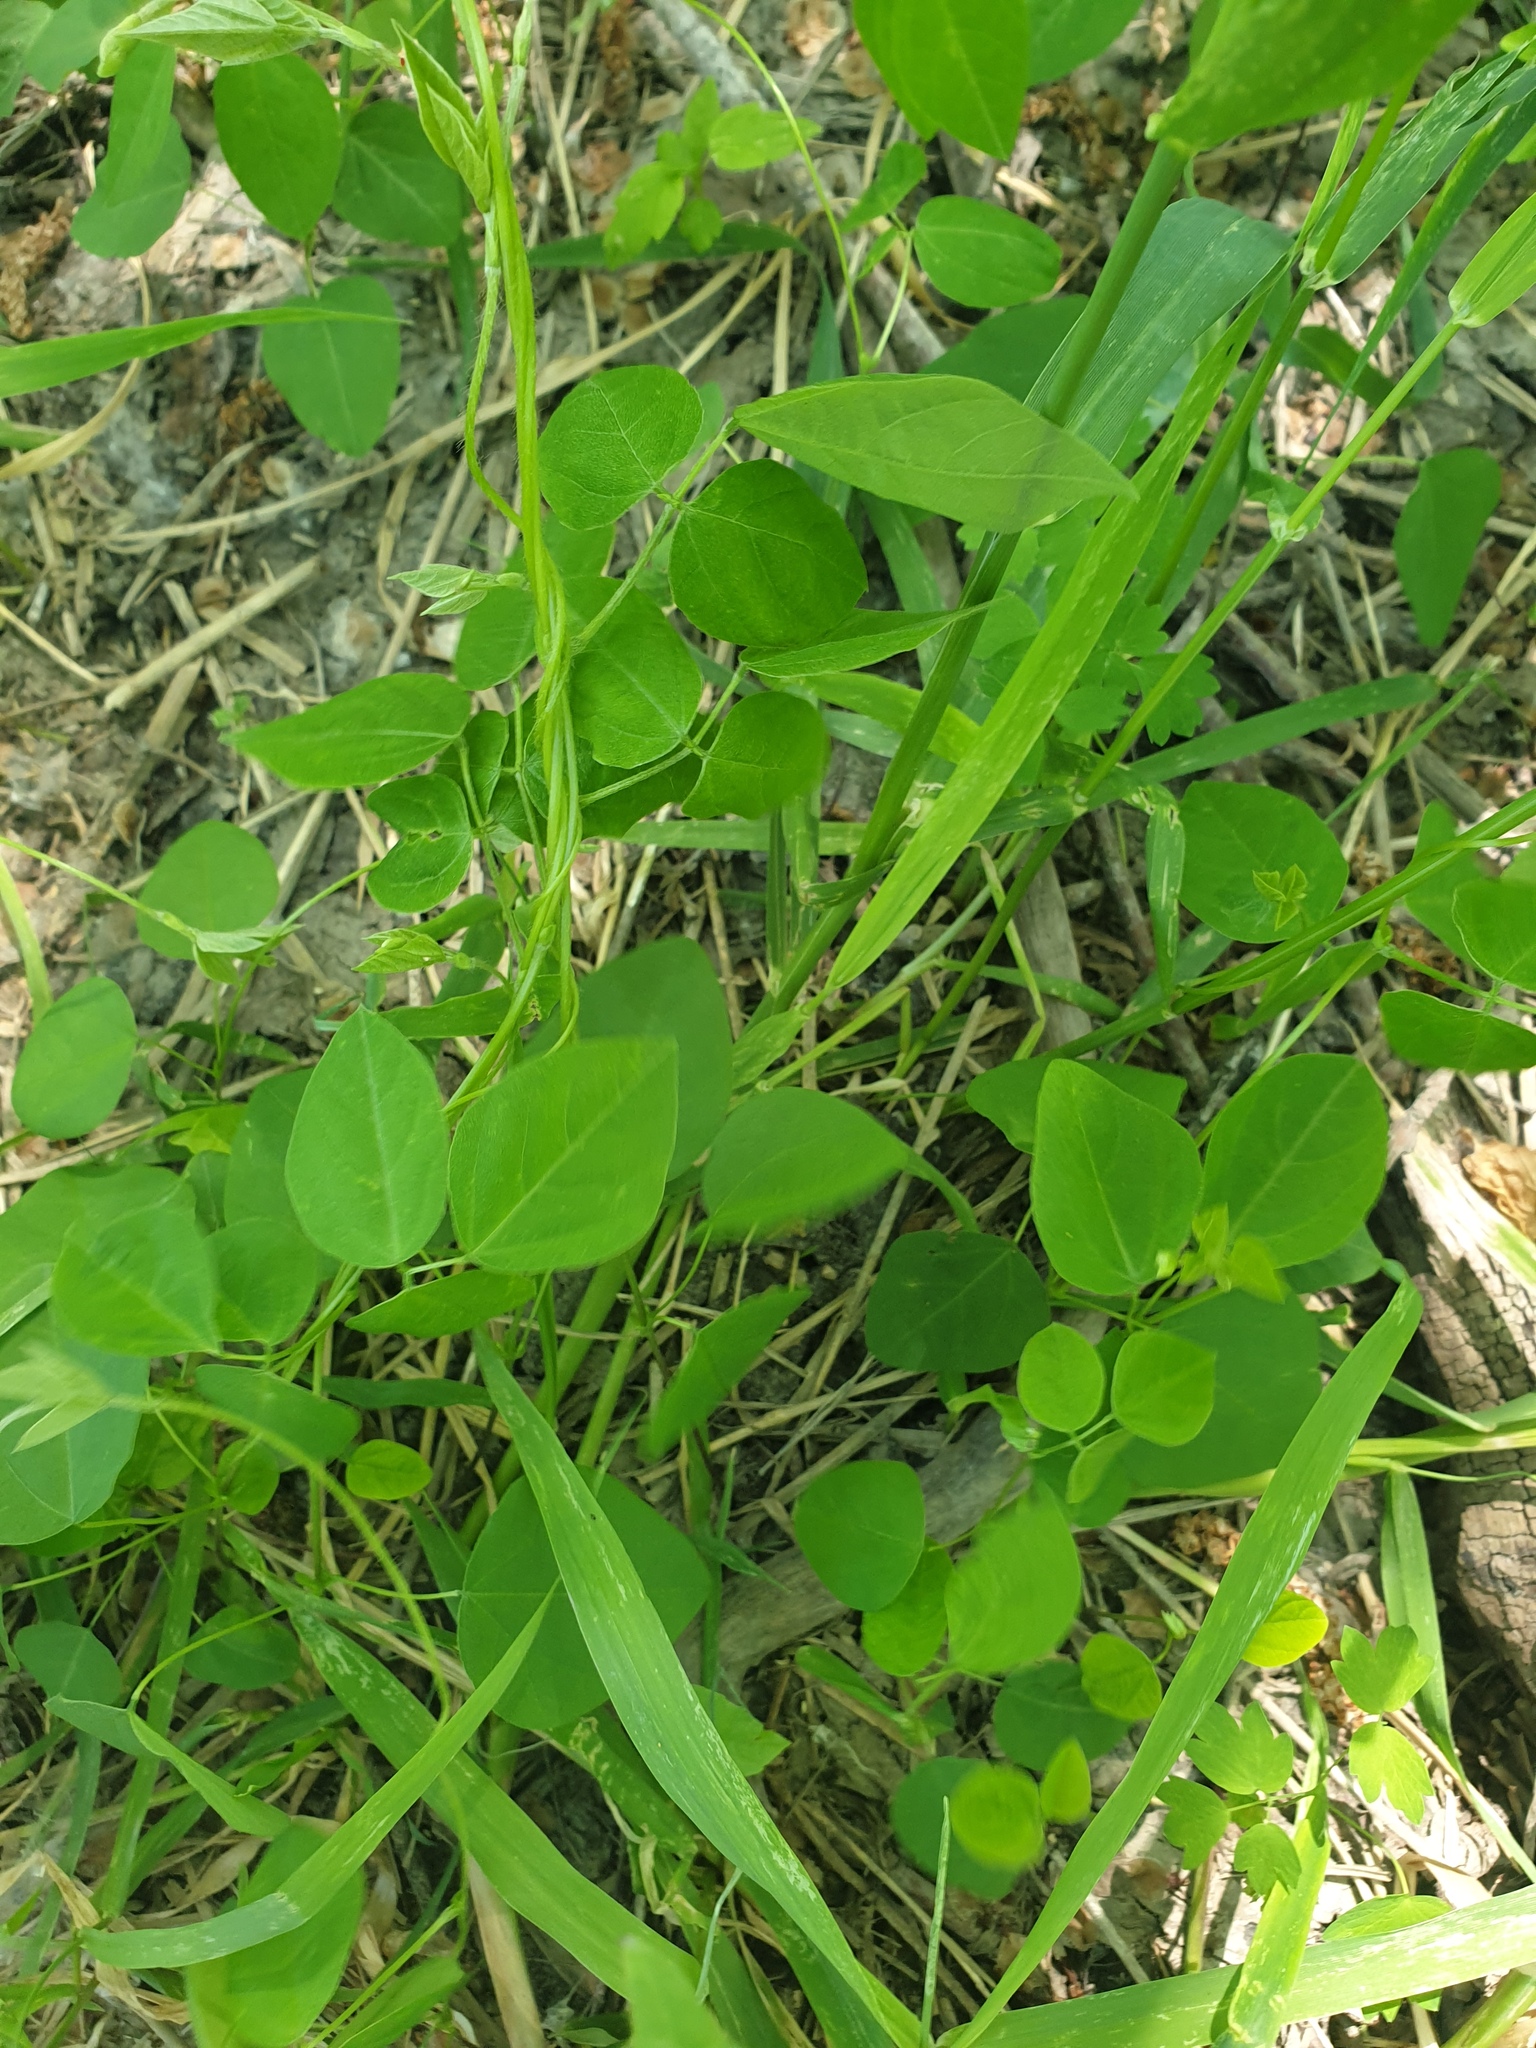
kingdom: Plantae
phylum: Tracheophyta
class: Magnoliopsida
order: Fabales
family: Fabaceae
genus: Amphicarpaea
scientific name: Amphicarpaea bracteata
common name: American hog peanut
